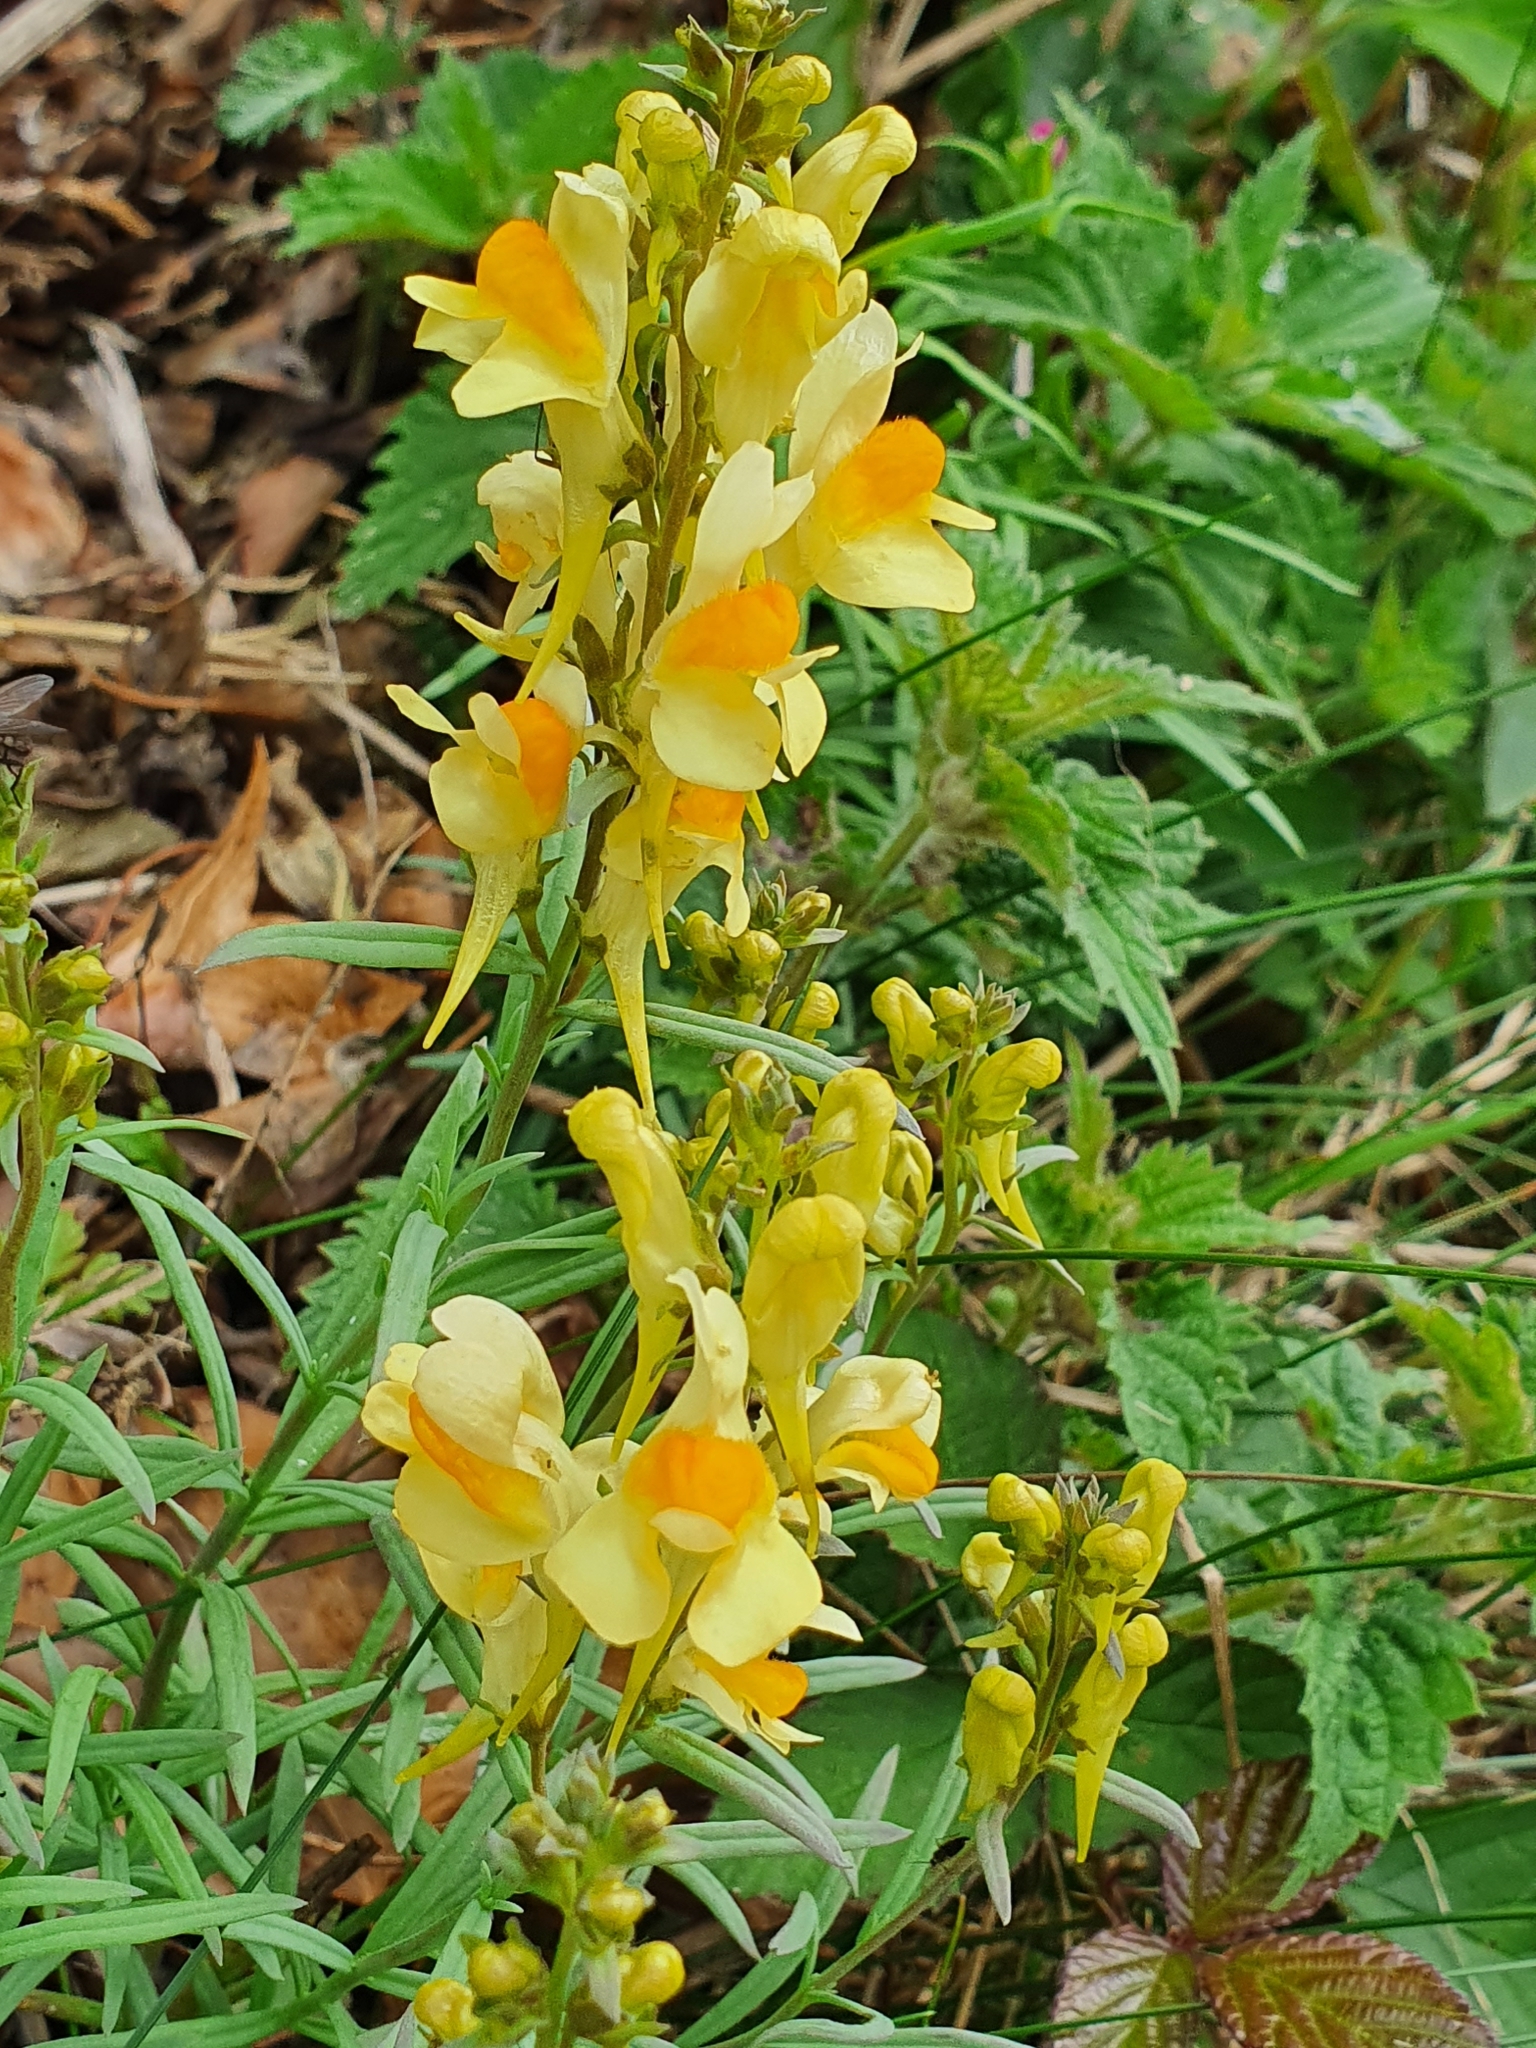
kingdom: Plantae
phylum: Tracheophyta
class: Magnoliopsida
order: Lamiales
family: Plantaginaceae
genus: Linaria
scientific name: Linaria vulgaris
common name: Butter and eggs
